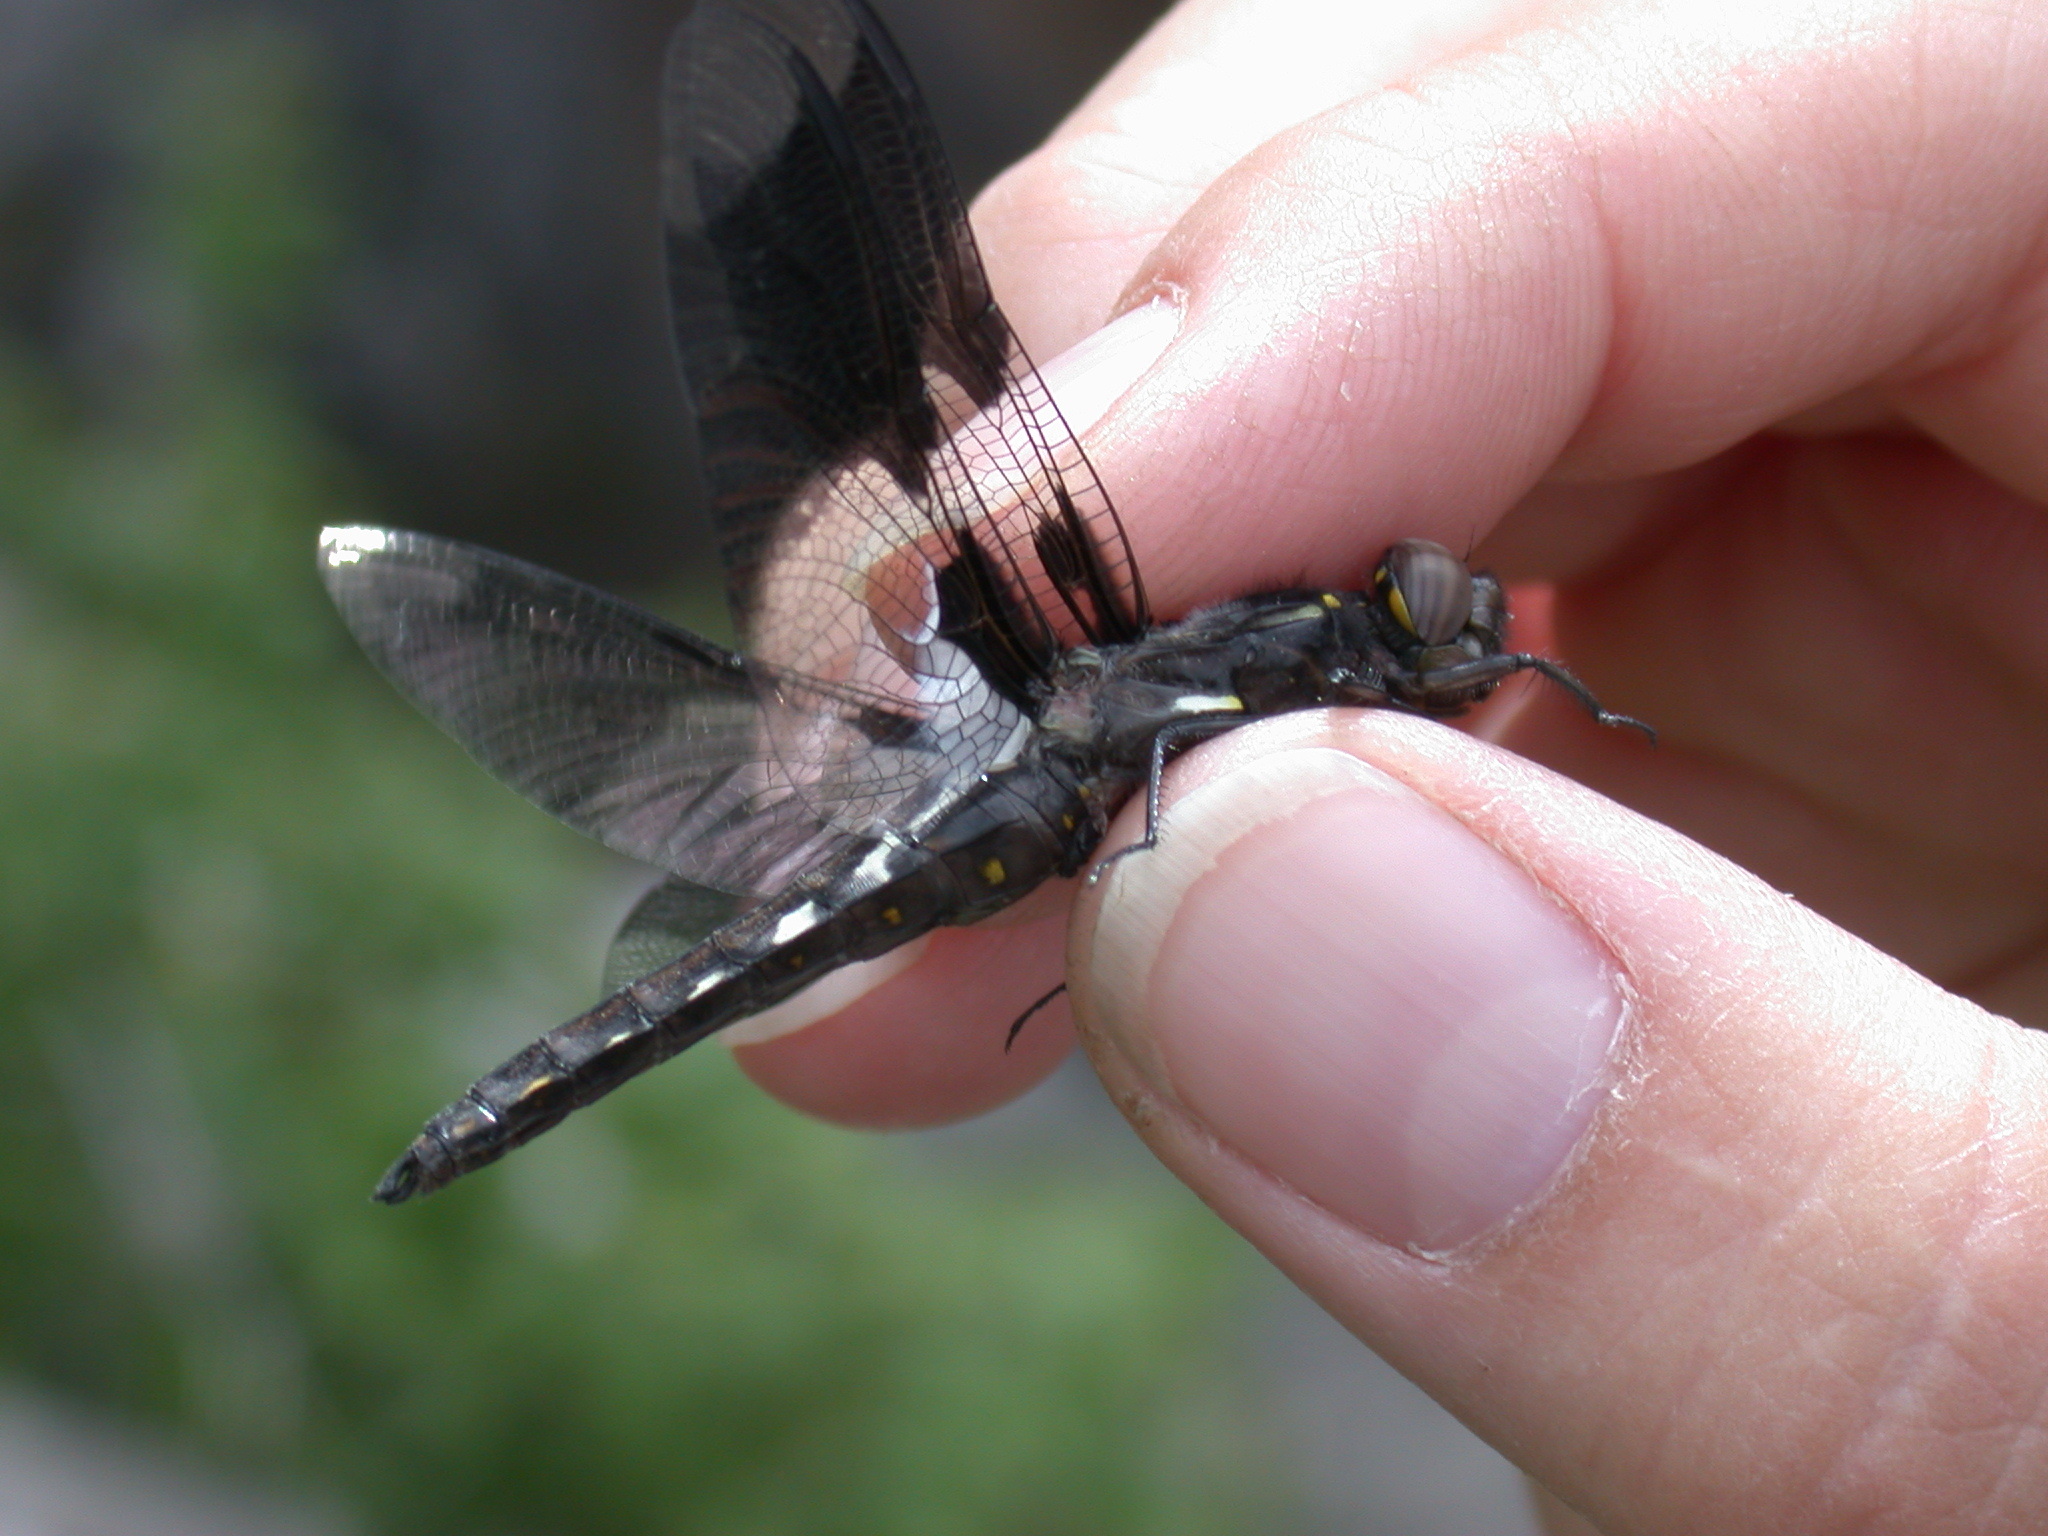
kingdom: Animalia
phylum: Arthropoda
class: Insecta
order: Odonata
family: Libellulidae
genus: Plathemis
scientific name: Plathemis lydia
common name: Common whitetail
